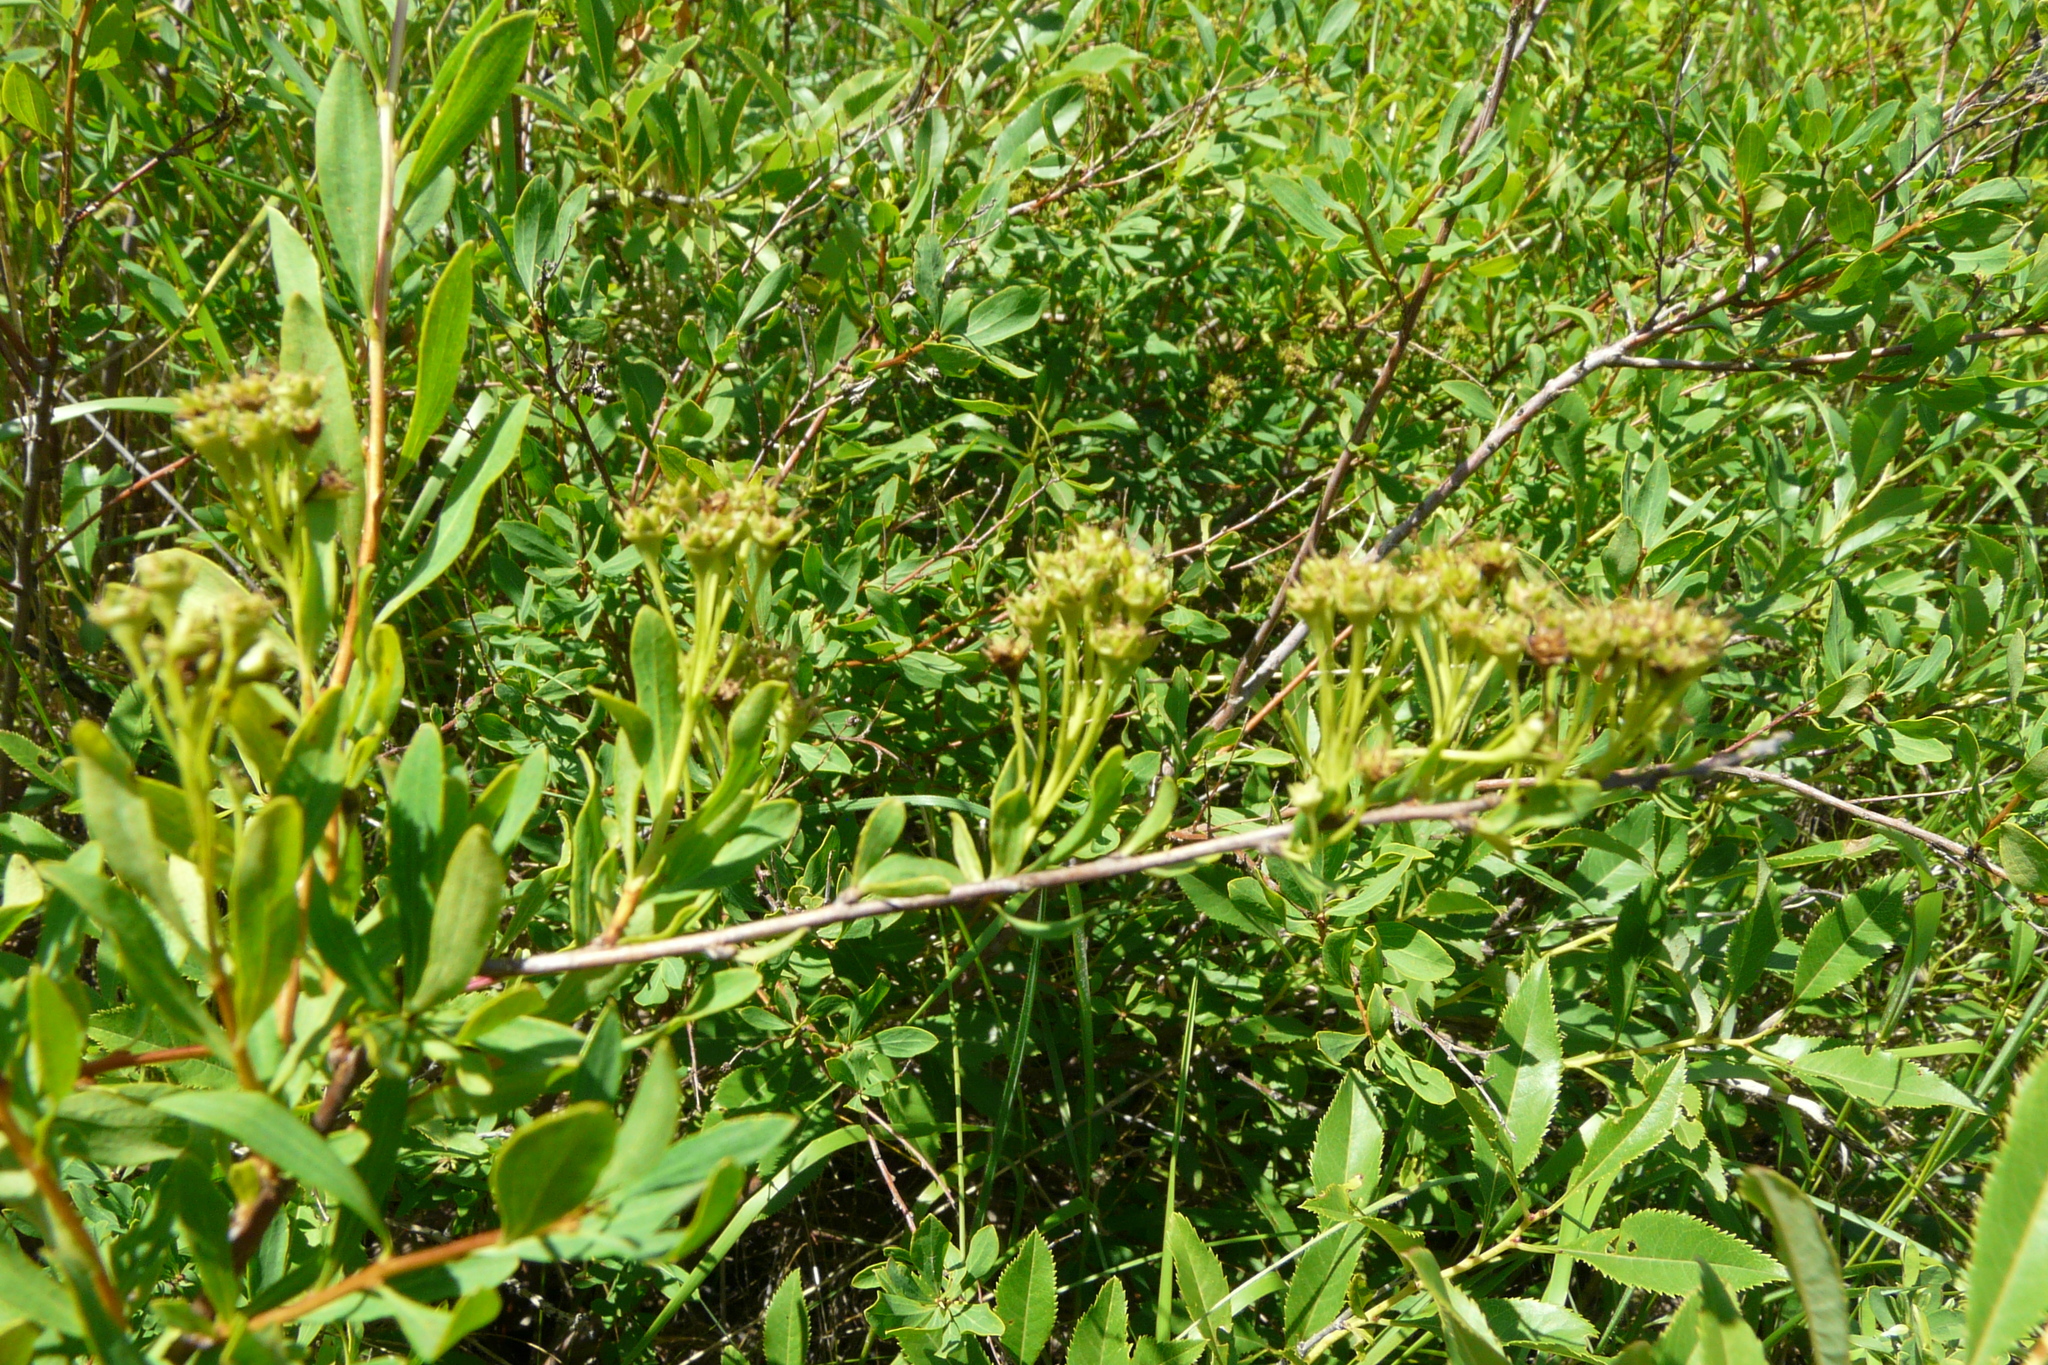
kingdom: Plantae
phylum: Tracheophyta
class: Magnoliopsida
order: Rosales
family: Rosaceae
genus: Spiraea
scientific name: Spiraea crenata
